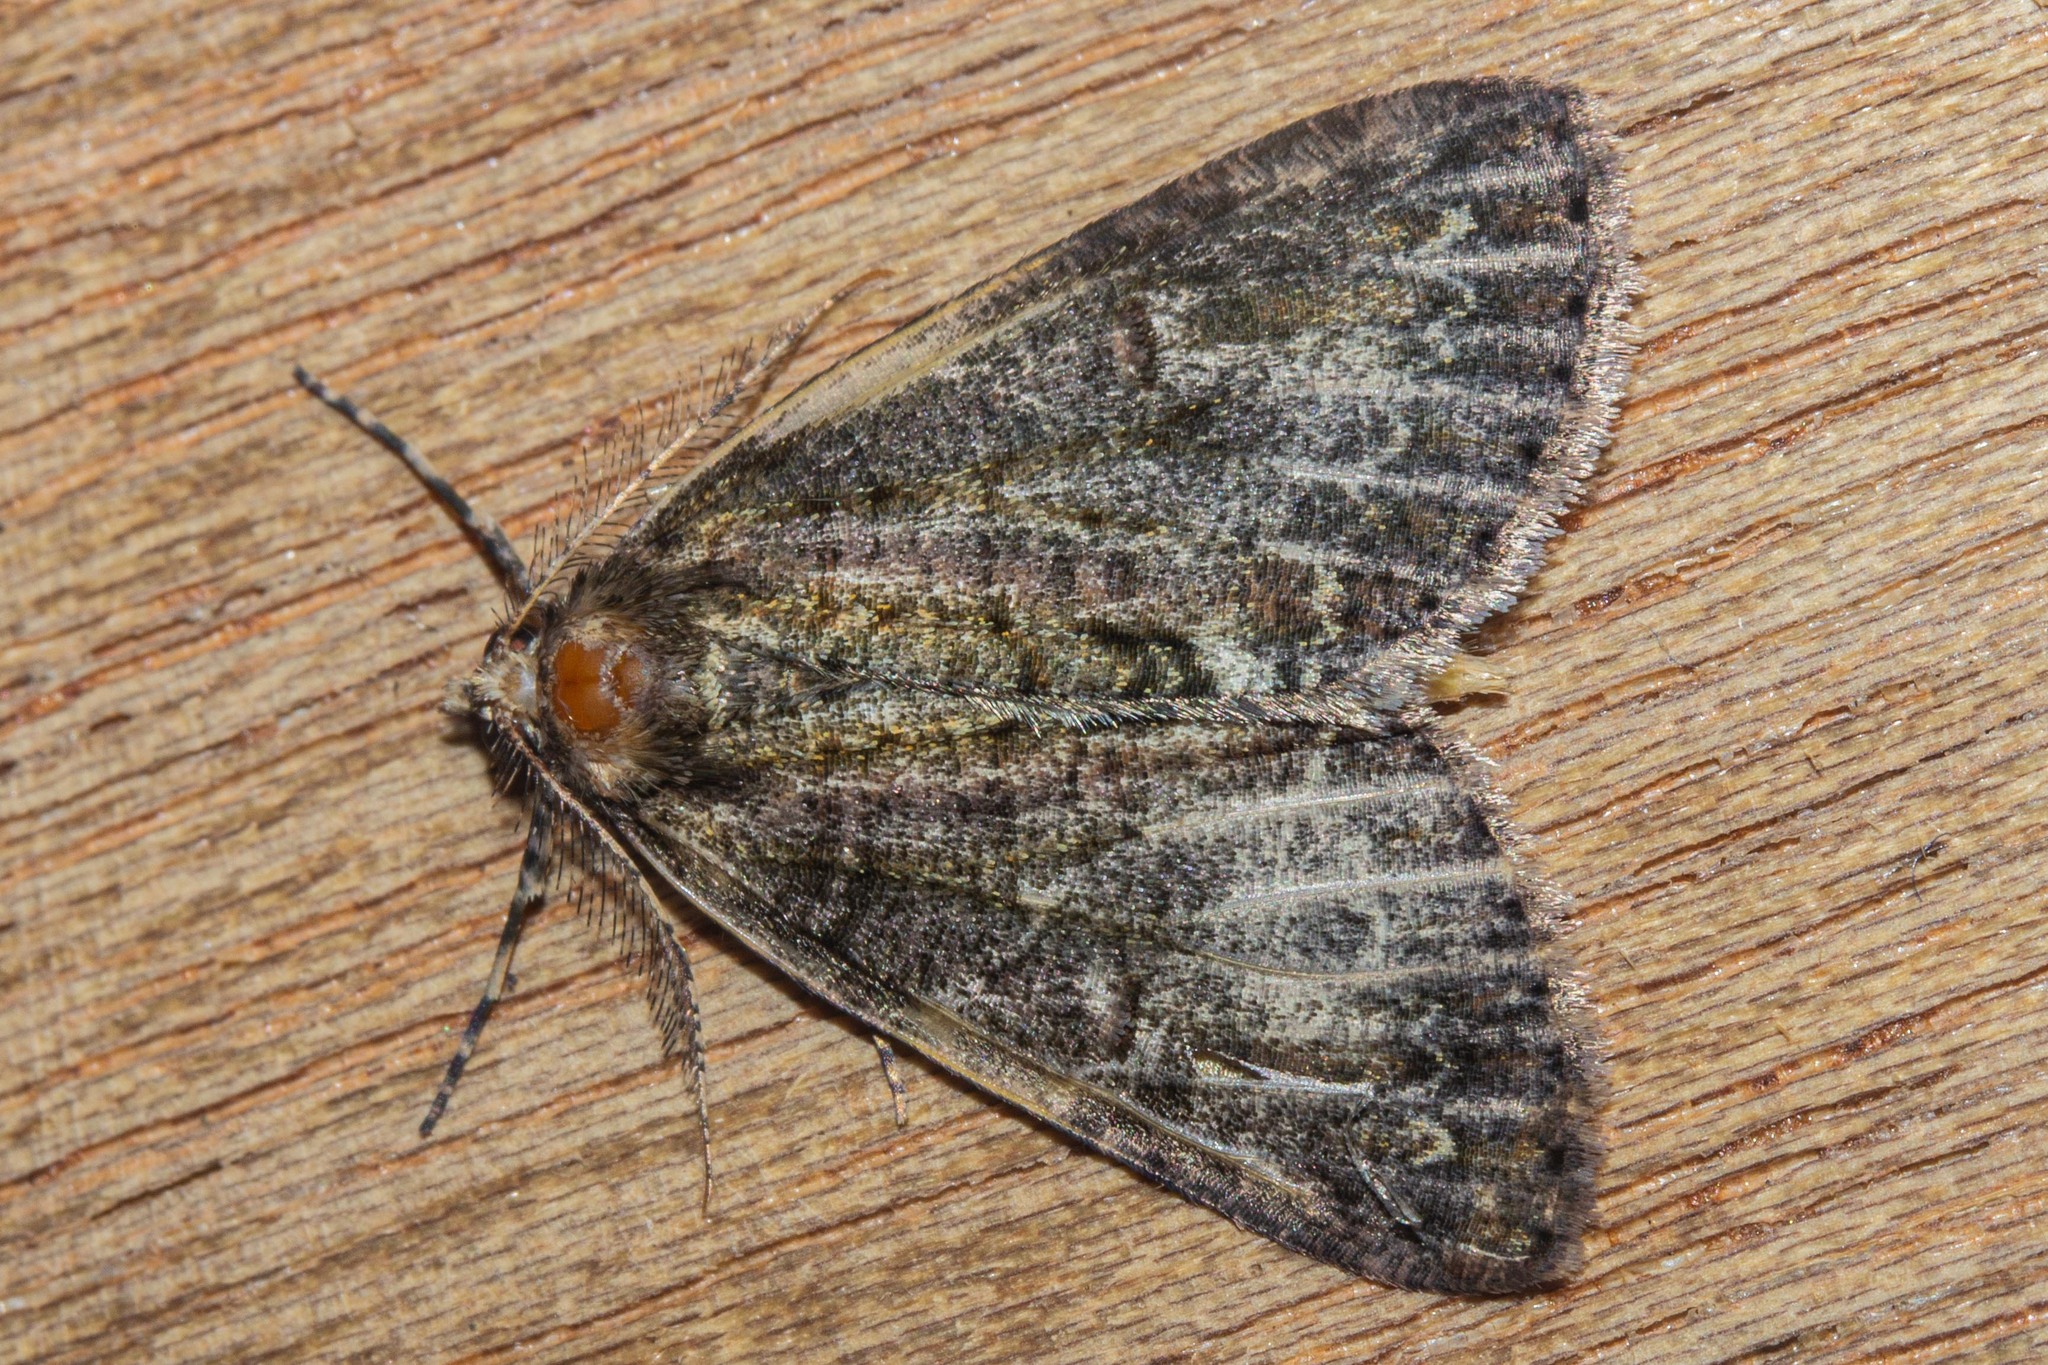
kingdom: Animalia
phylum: Arthropoda
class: Insecta
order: Lepidoptera
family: Geometridae
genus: Pseudocoremia
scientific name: Pseudocoremia suavis
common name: Common forest looper
